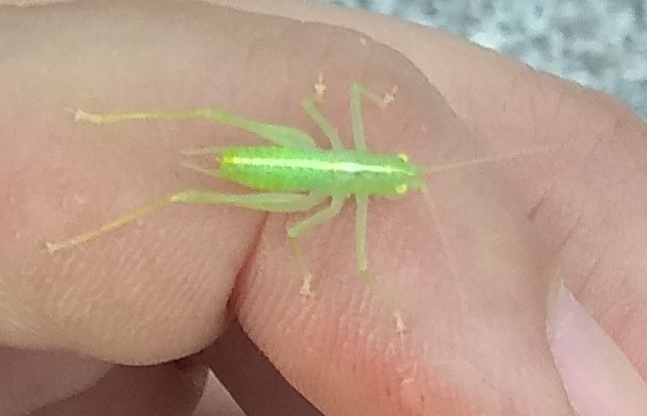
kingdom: Animalia
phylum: Arthropoda
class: Insecta
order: Orthoptera
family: Tettigoniidae
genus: Meconema
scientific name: Meconema meridionale
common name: Southern oak bush-cricket
